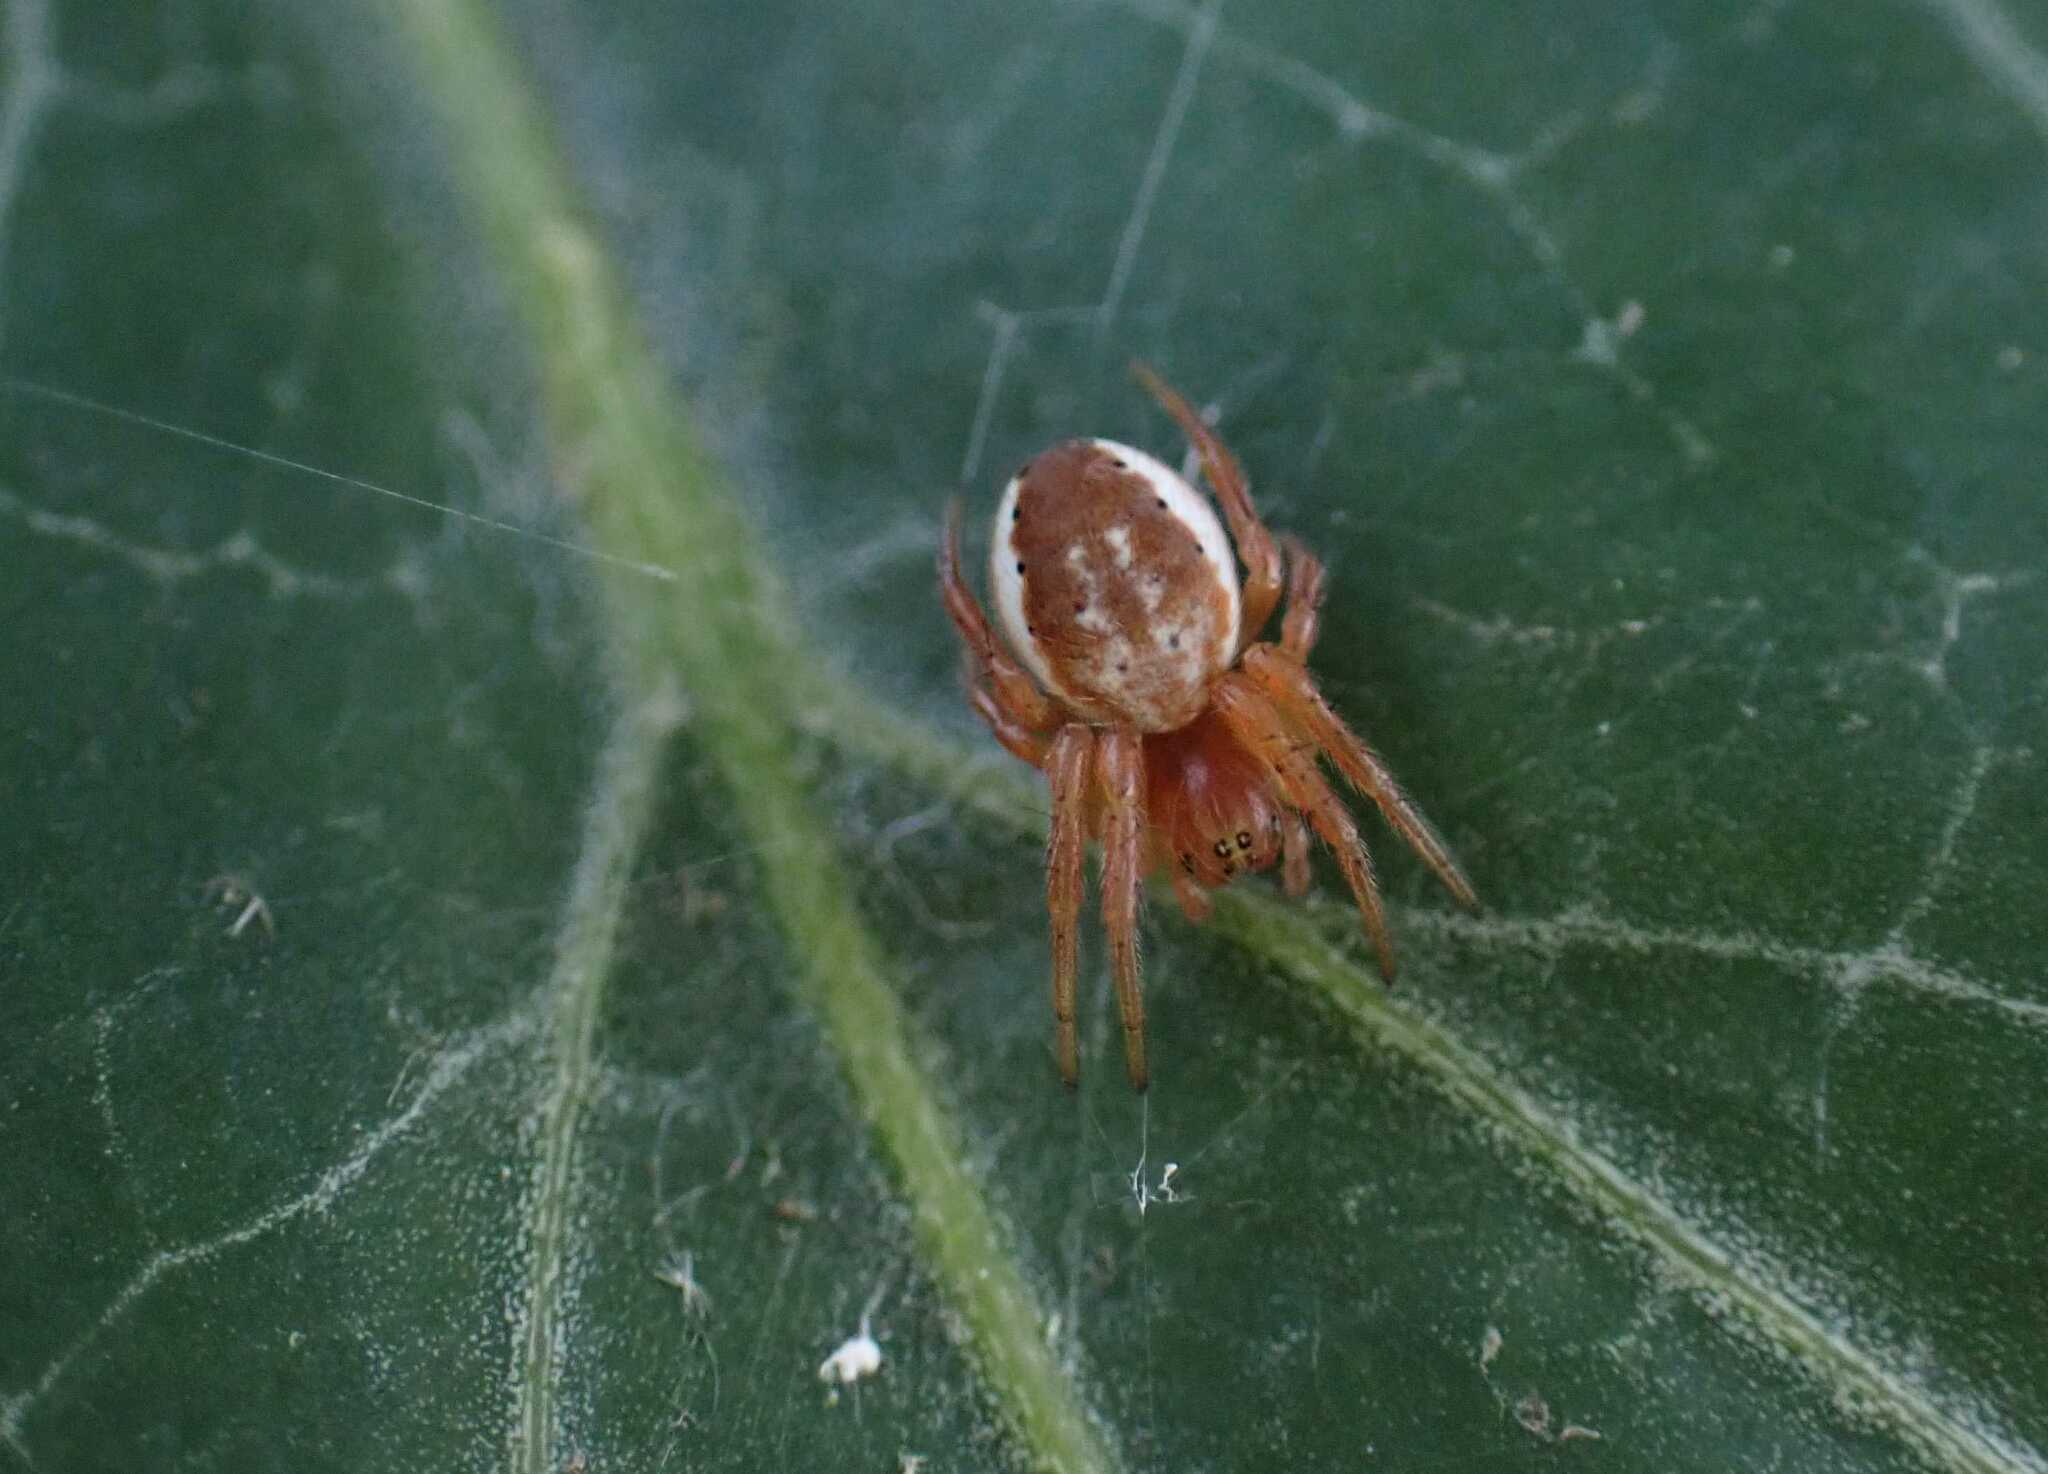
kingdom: Animalia
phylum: Arthropoda
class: Arachnida
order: Araneae
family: Araneidae
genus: Araniella
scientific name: Araniella
